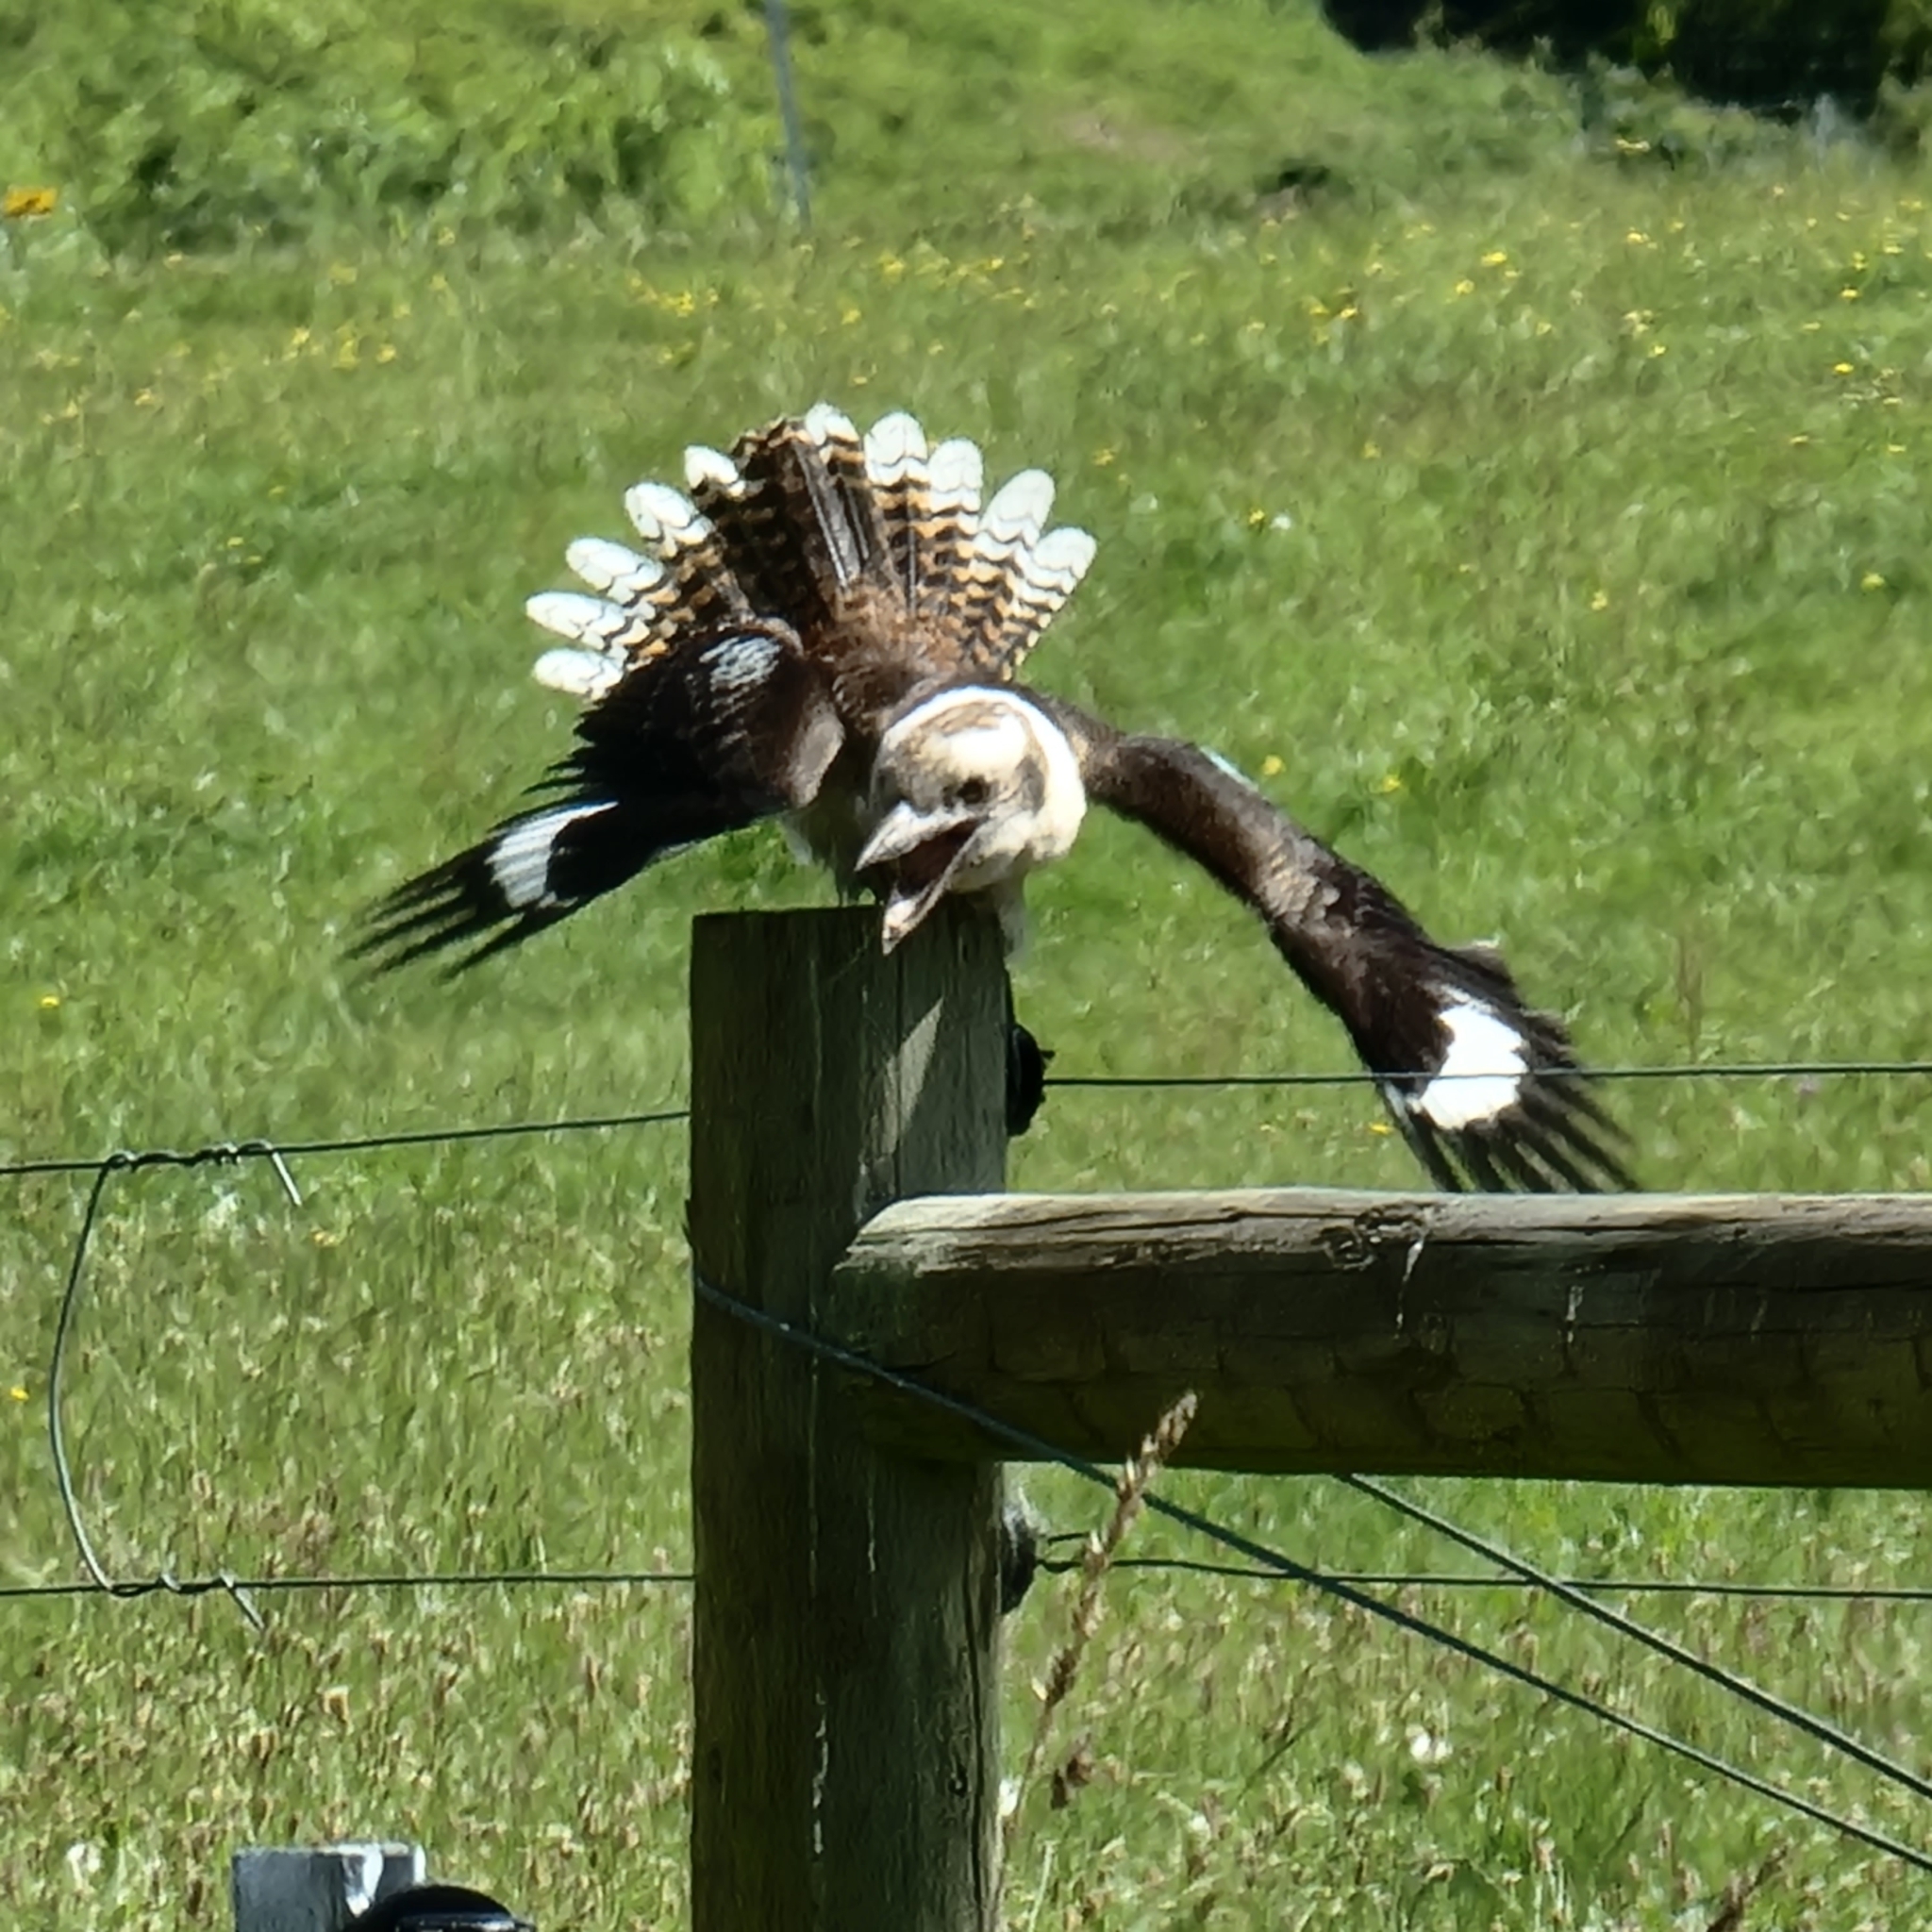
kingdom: Animalia
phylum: Chordata
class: Aves
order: Coraciiformes
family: Alcedinidae
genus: Dacelo
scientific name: Dacelo novaeguineae
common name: Laughing kookaburra
